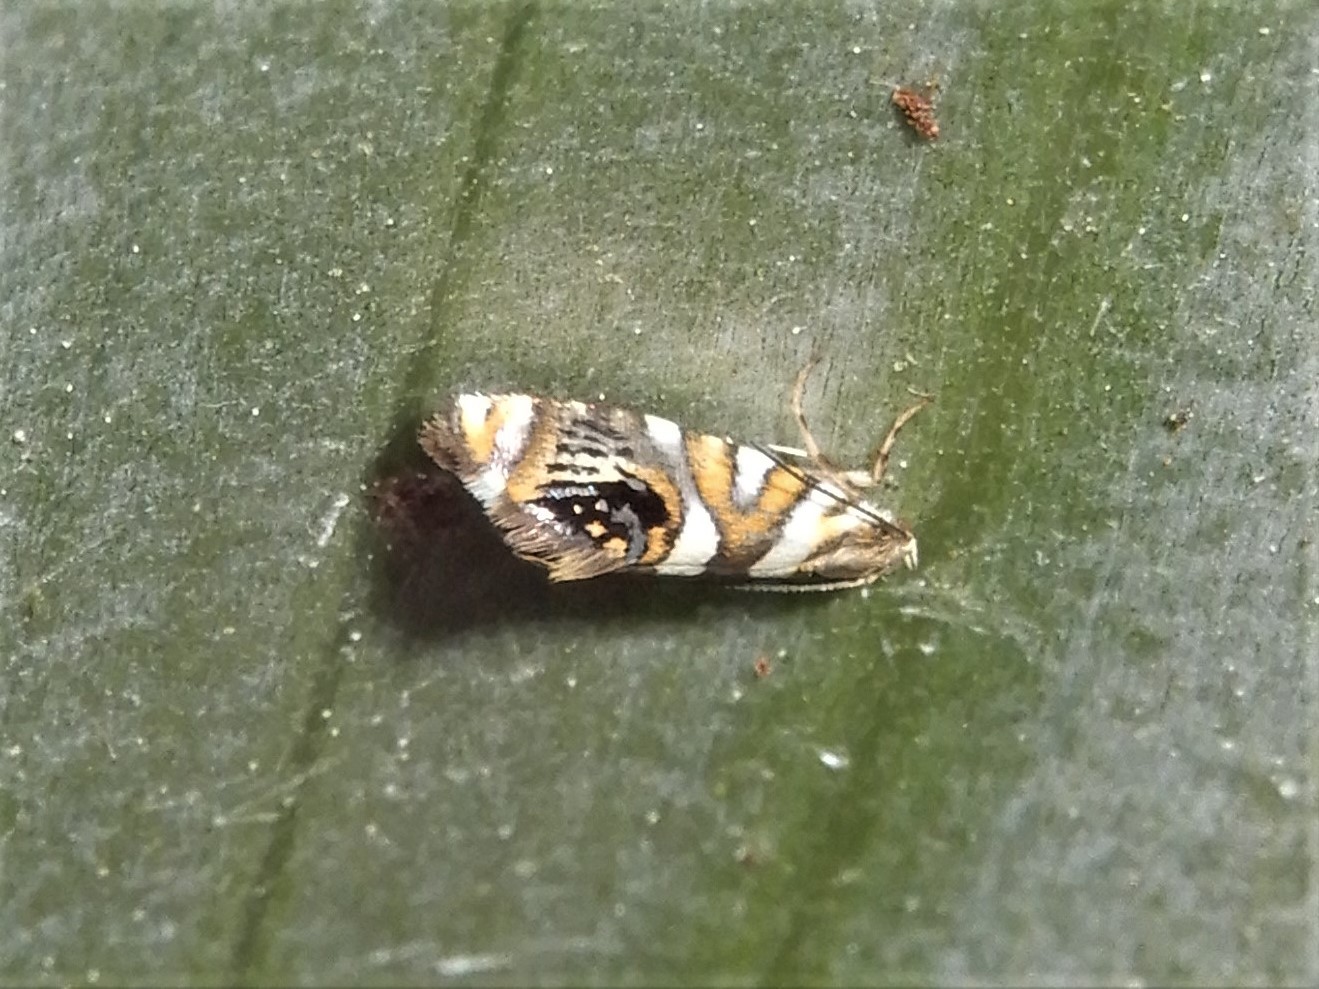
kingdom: Animalia
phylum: Arthropoda
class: Insecta
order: Lepidoptera
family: Plutellidae
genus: Protosynaema
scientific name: Protosynaema hymenopis
